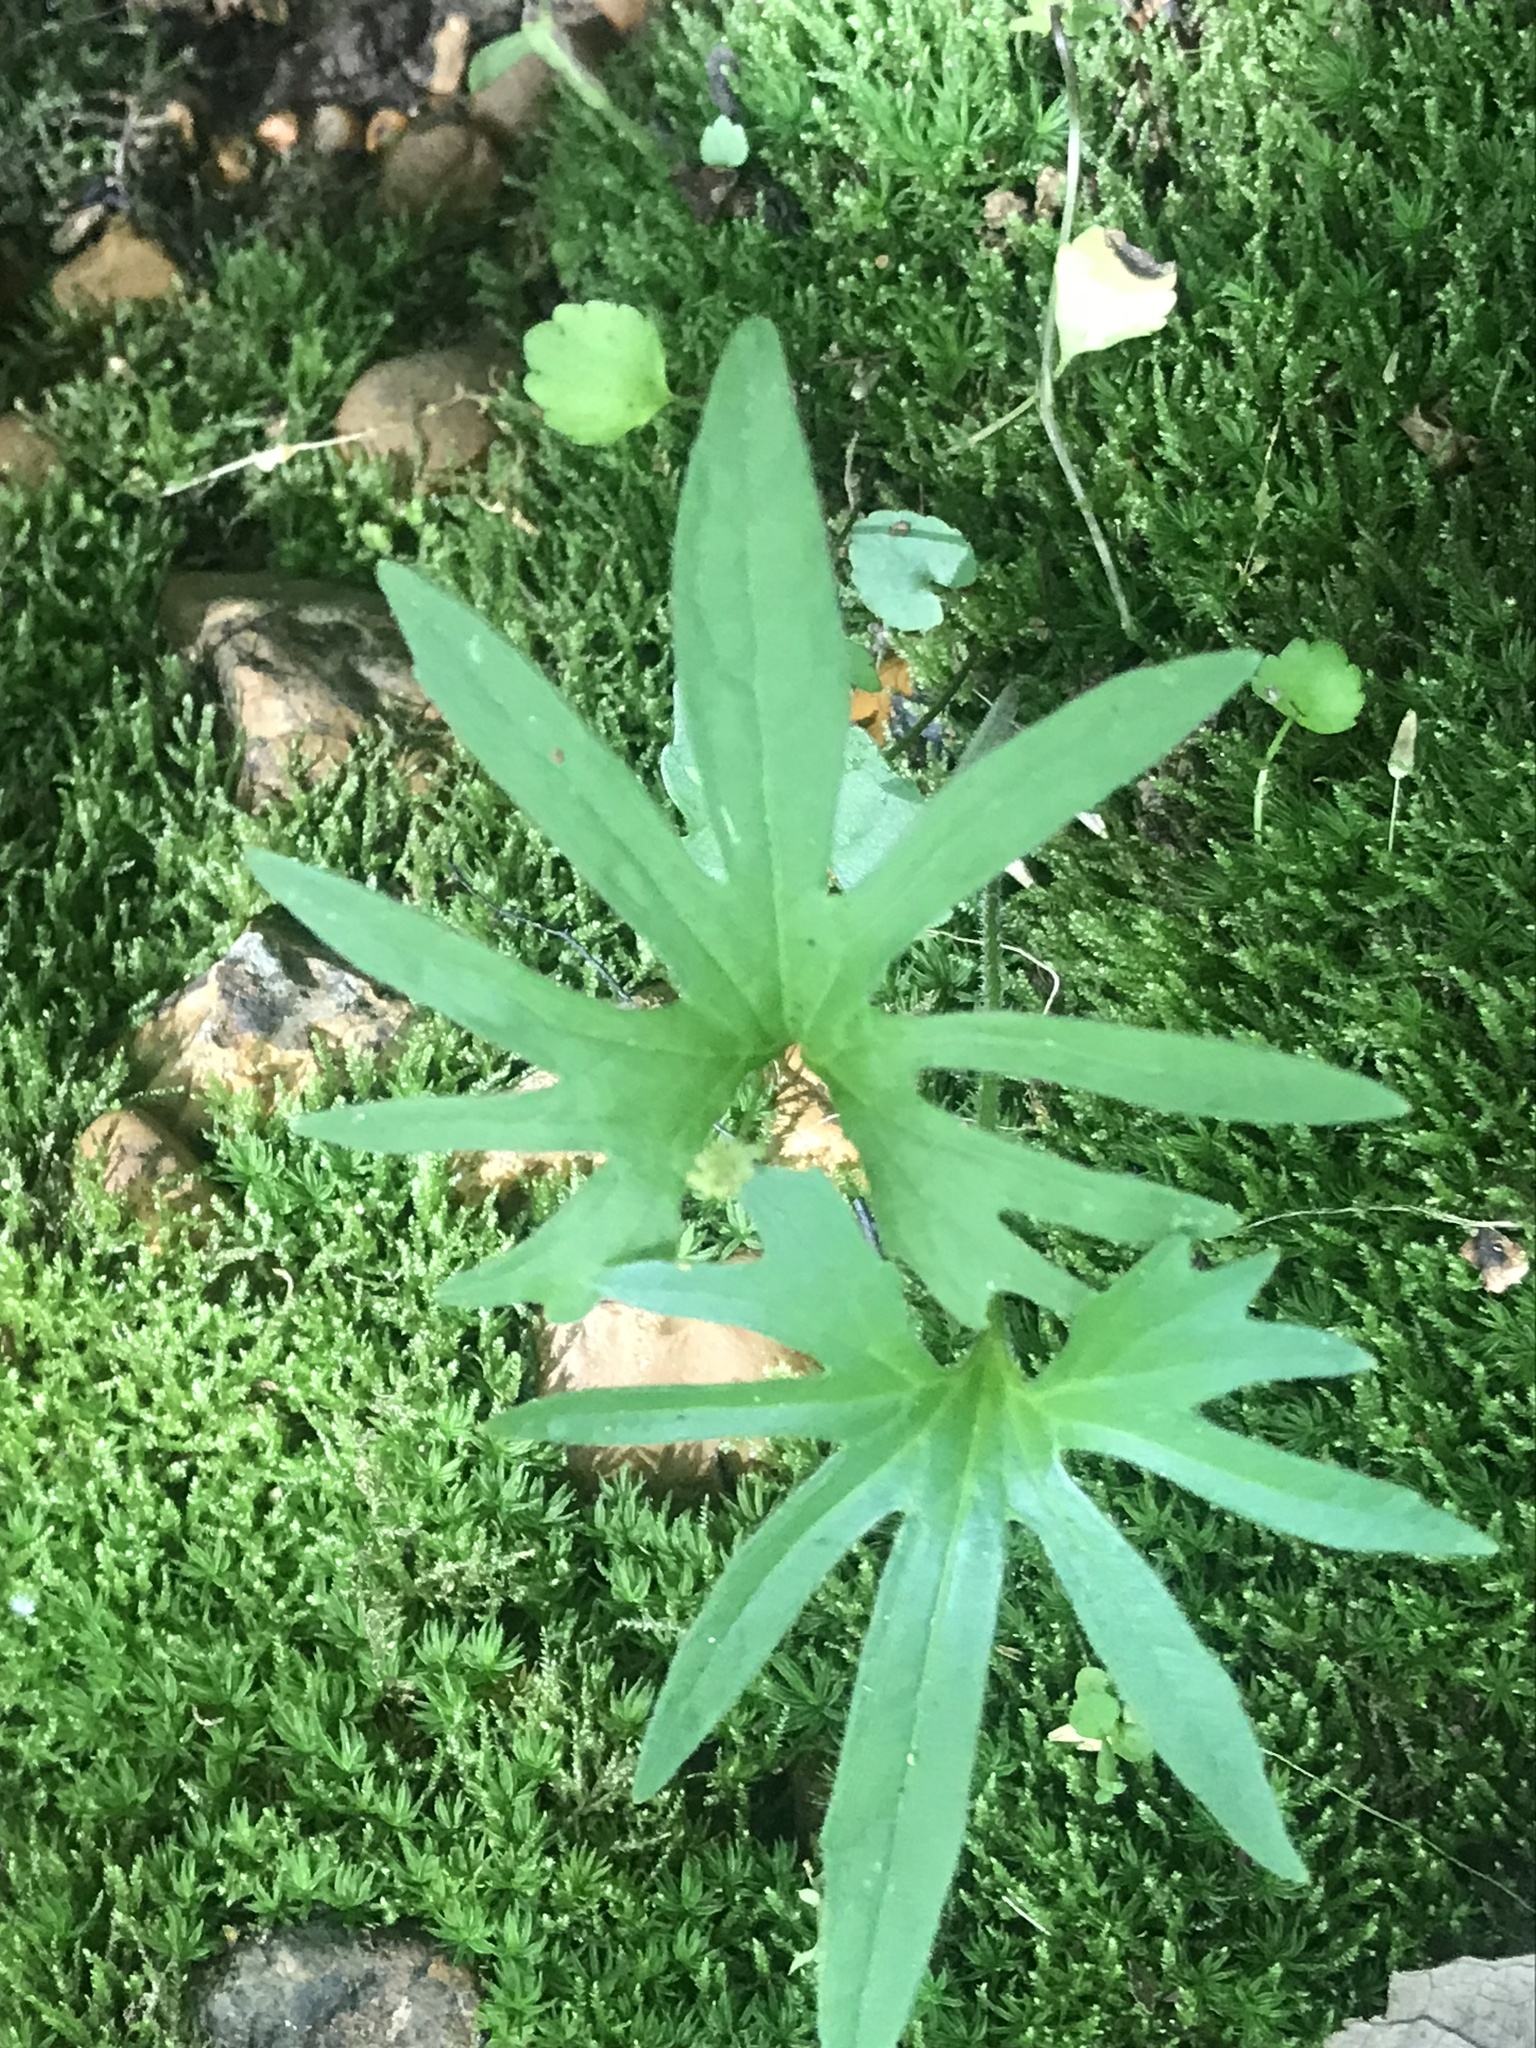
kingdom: Plantae
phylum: Tracheophyta
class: Magnoliopsida
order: Malpighiales
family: Violaceae
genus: Viola
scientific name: Viola palmata
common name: Early blue violet
